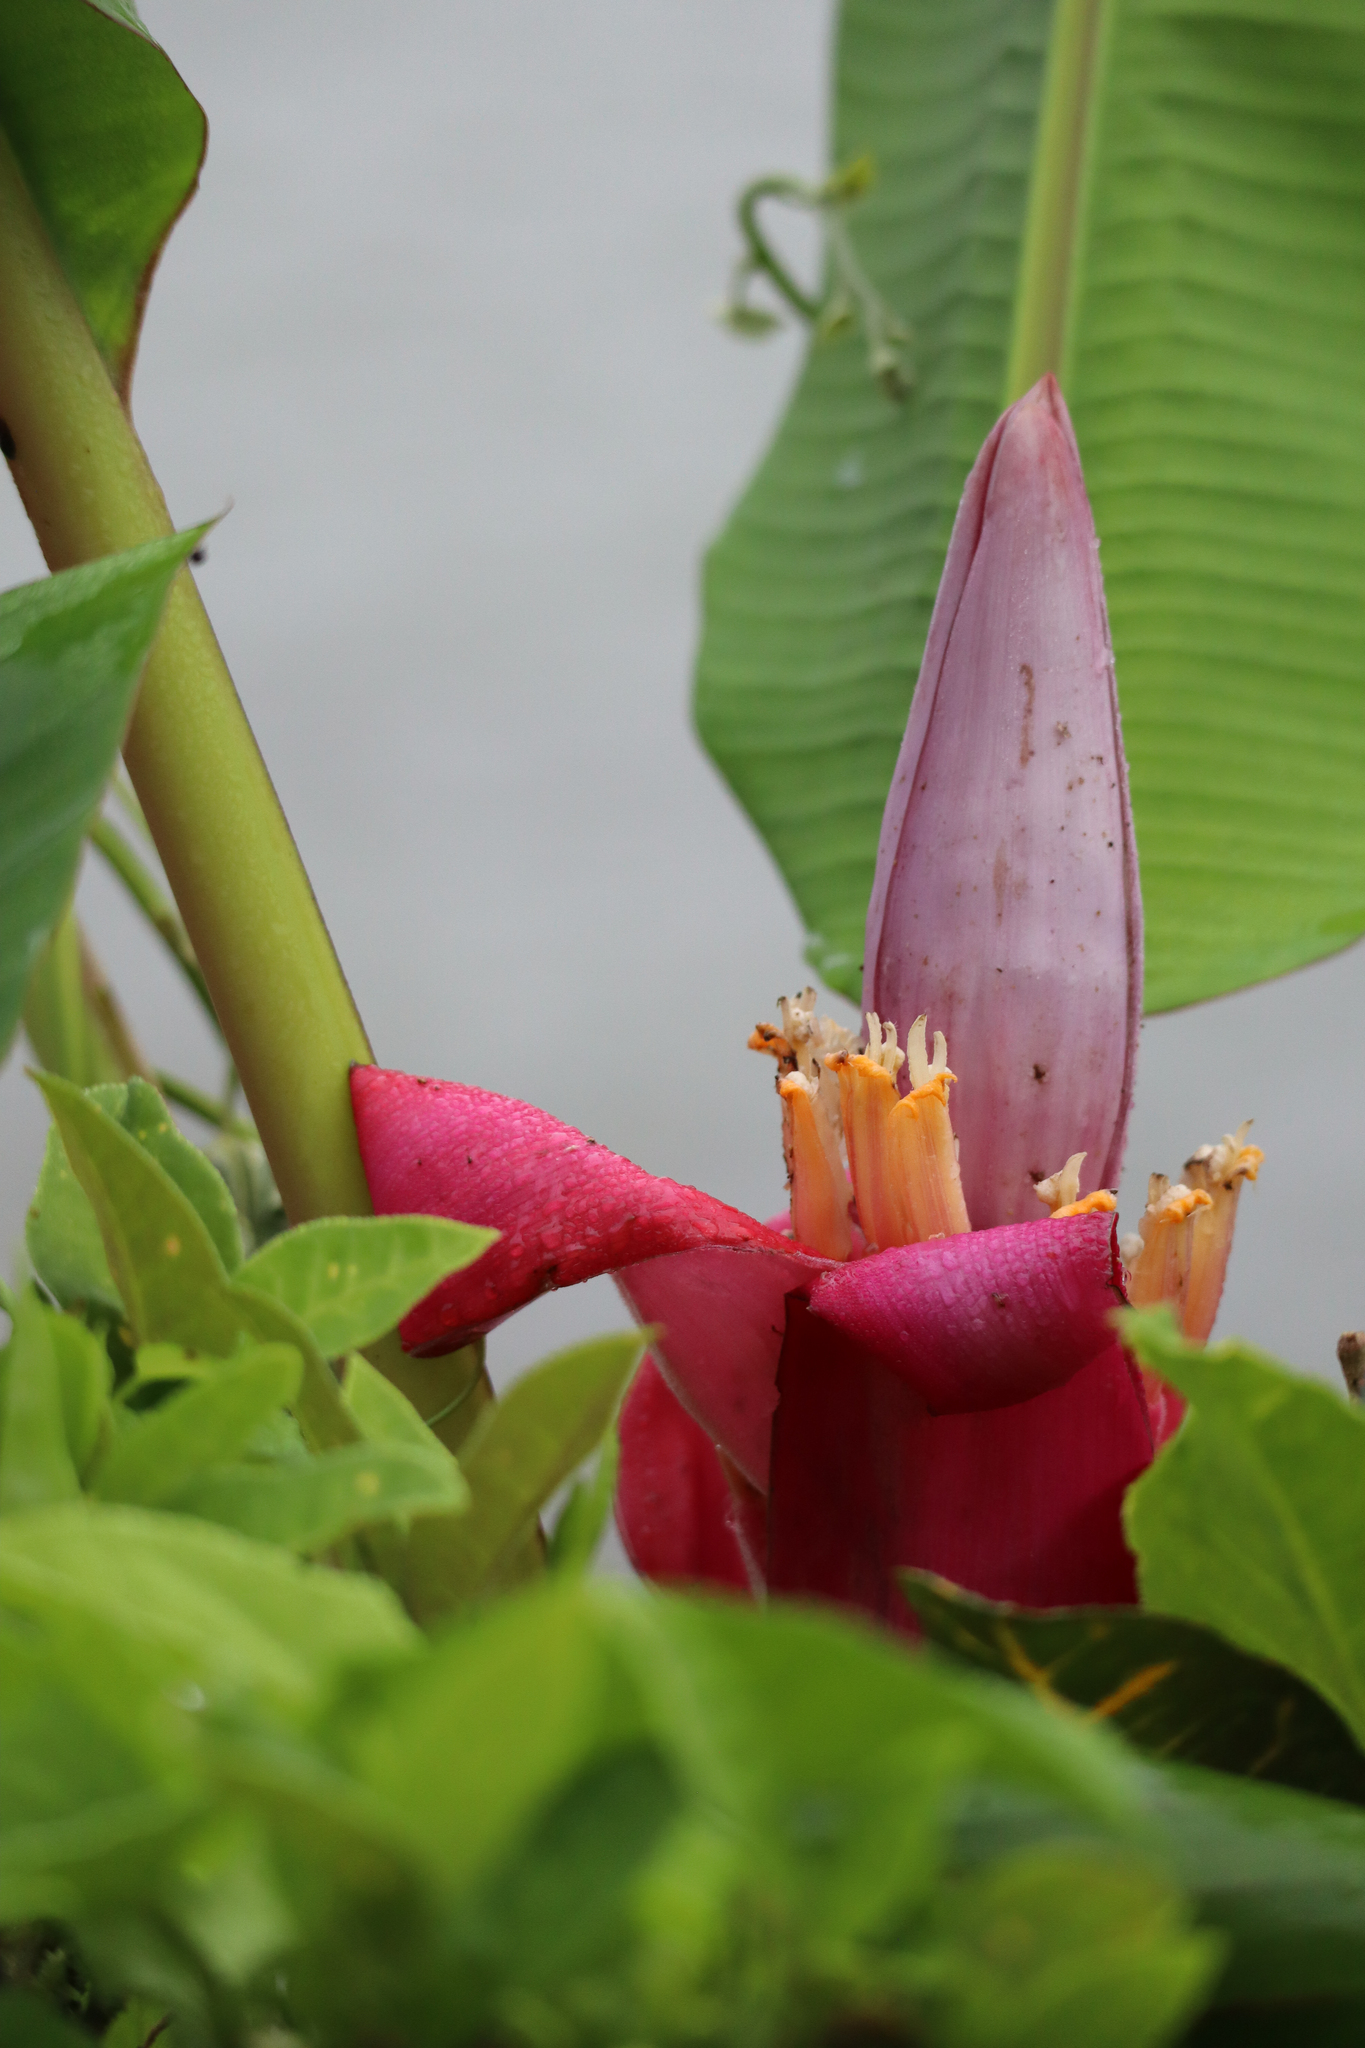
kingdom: Plantae
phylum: Tracheophyta
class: Liliopsida
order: Zingiberales
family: Musaceae
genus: Musa
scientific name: Musa velutina
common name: Pink velvet banana
